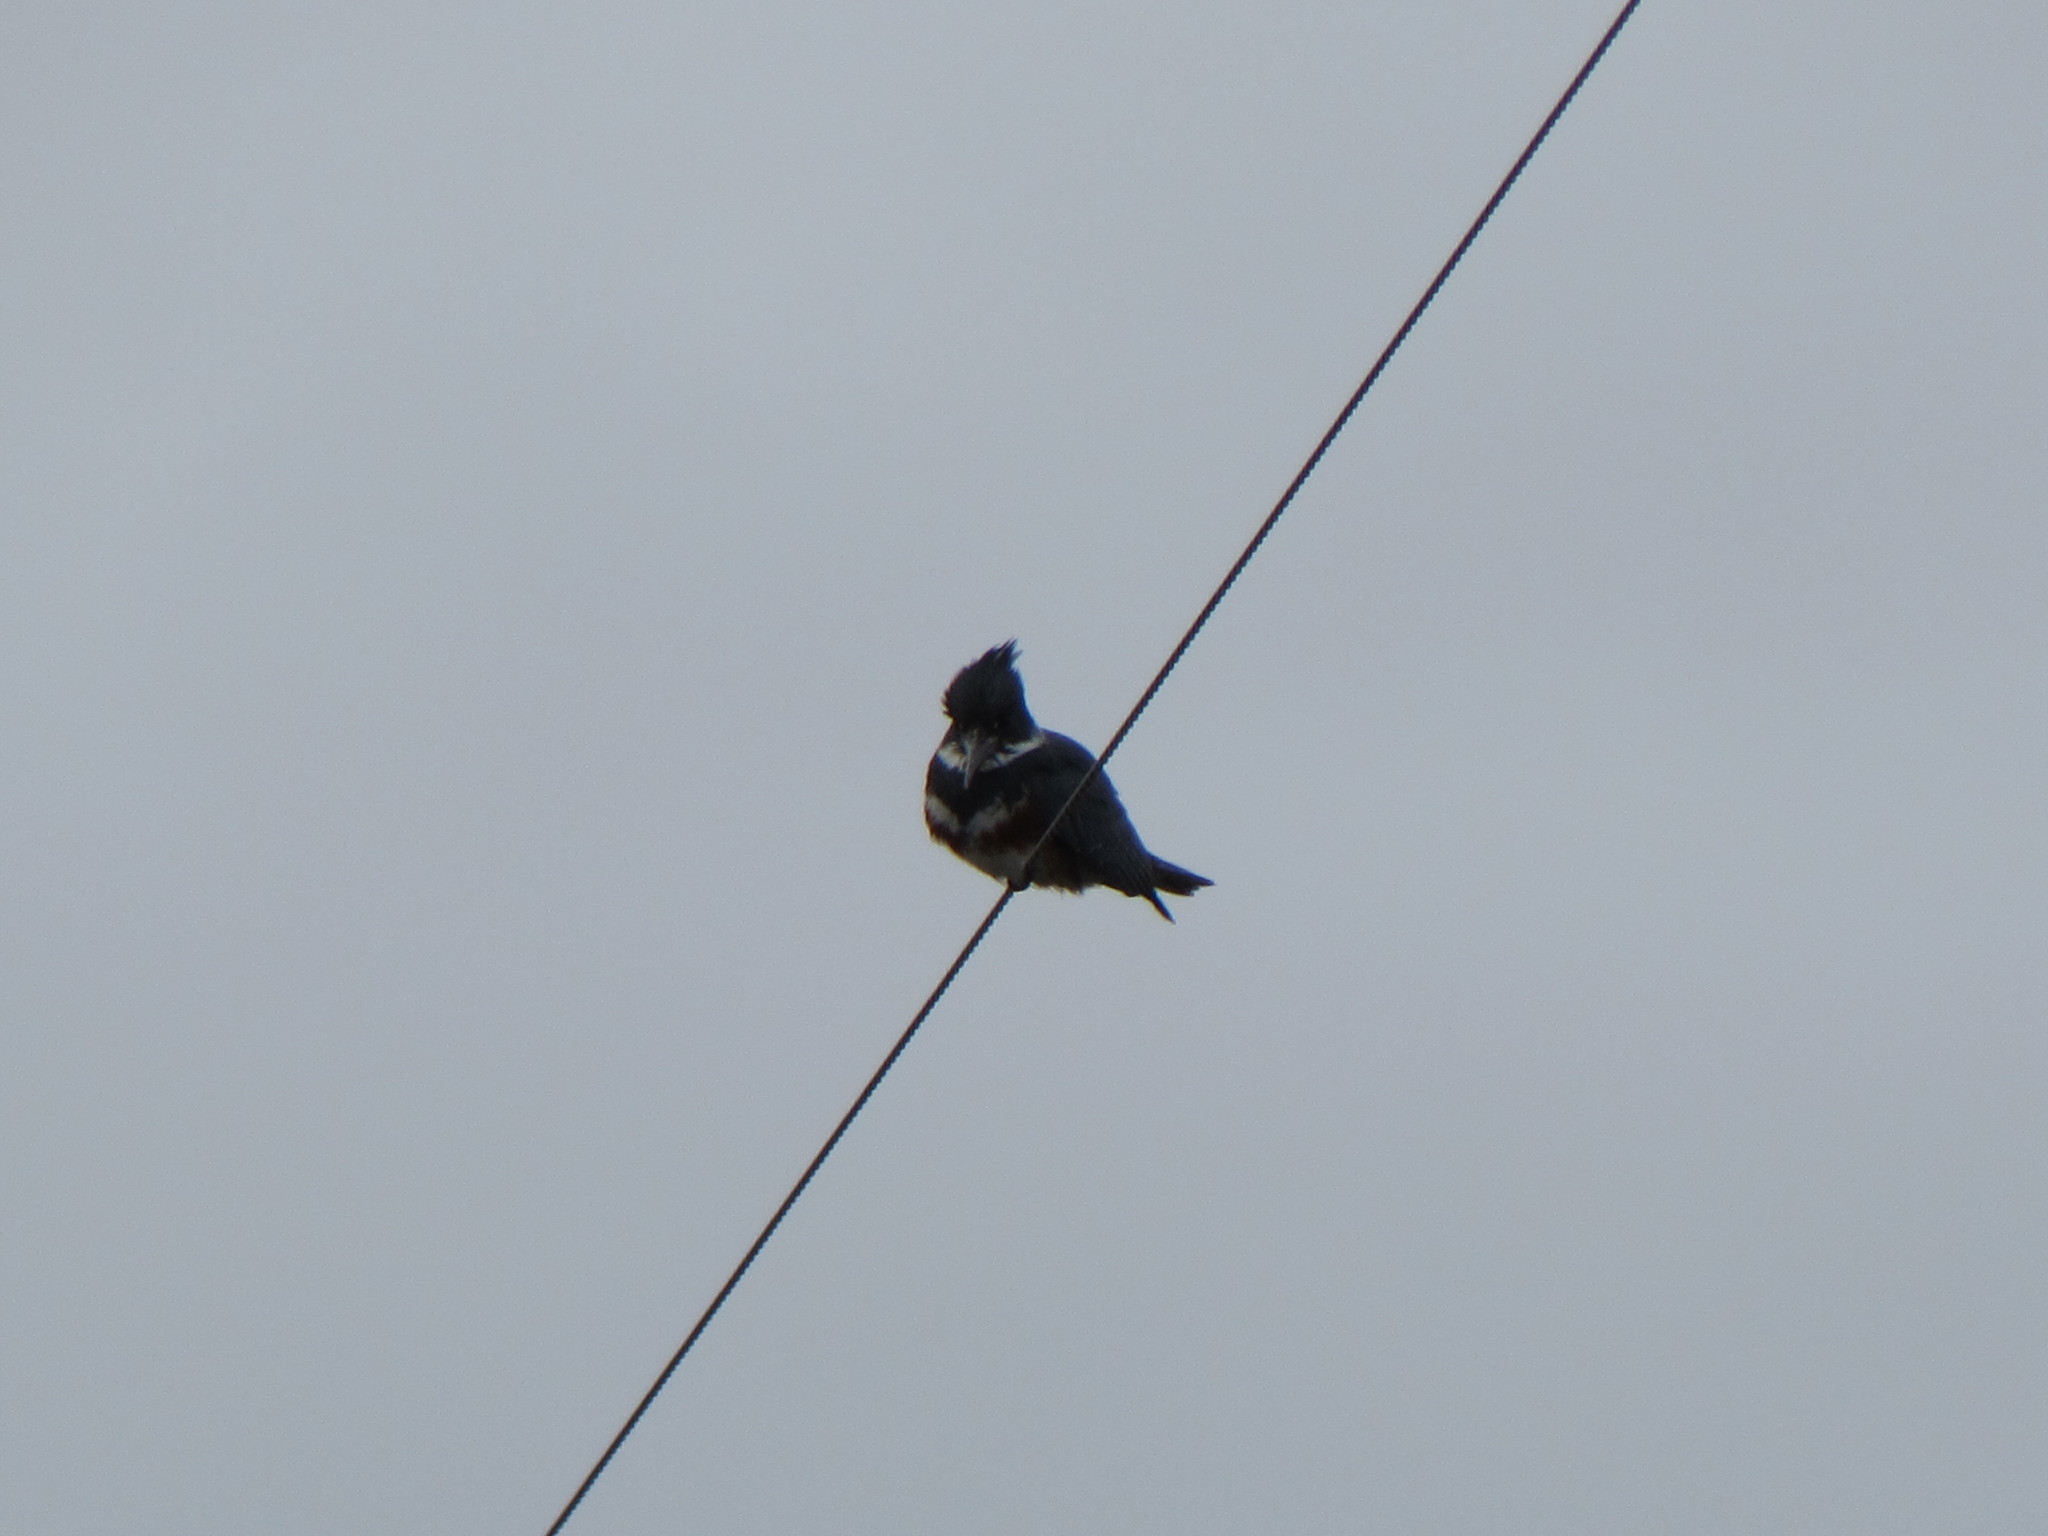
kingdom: Animalia
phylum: Chordata
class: Aves
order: Coraciiformes
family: Alcedinidae
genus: Megaceryle
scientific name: Megaceryle alcyon
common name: Belted kingfisher
